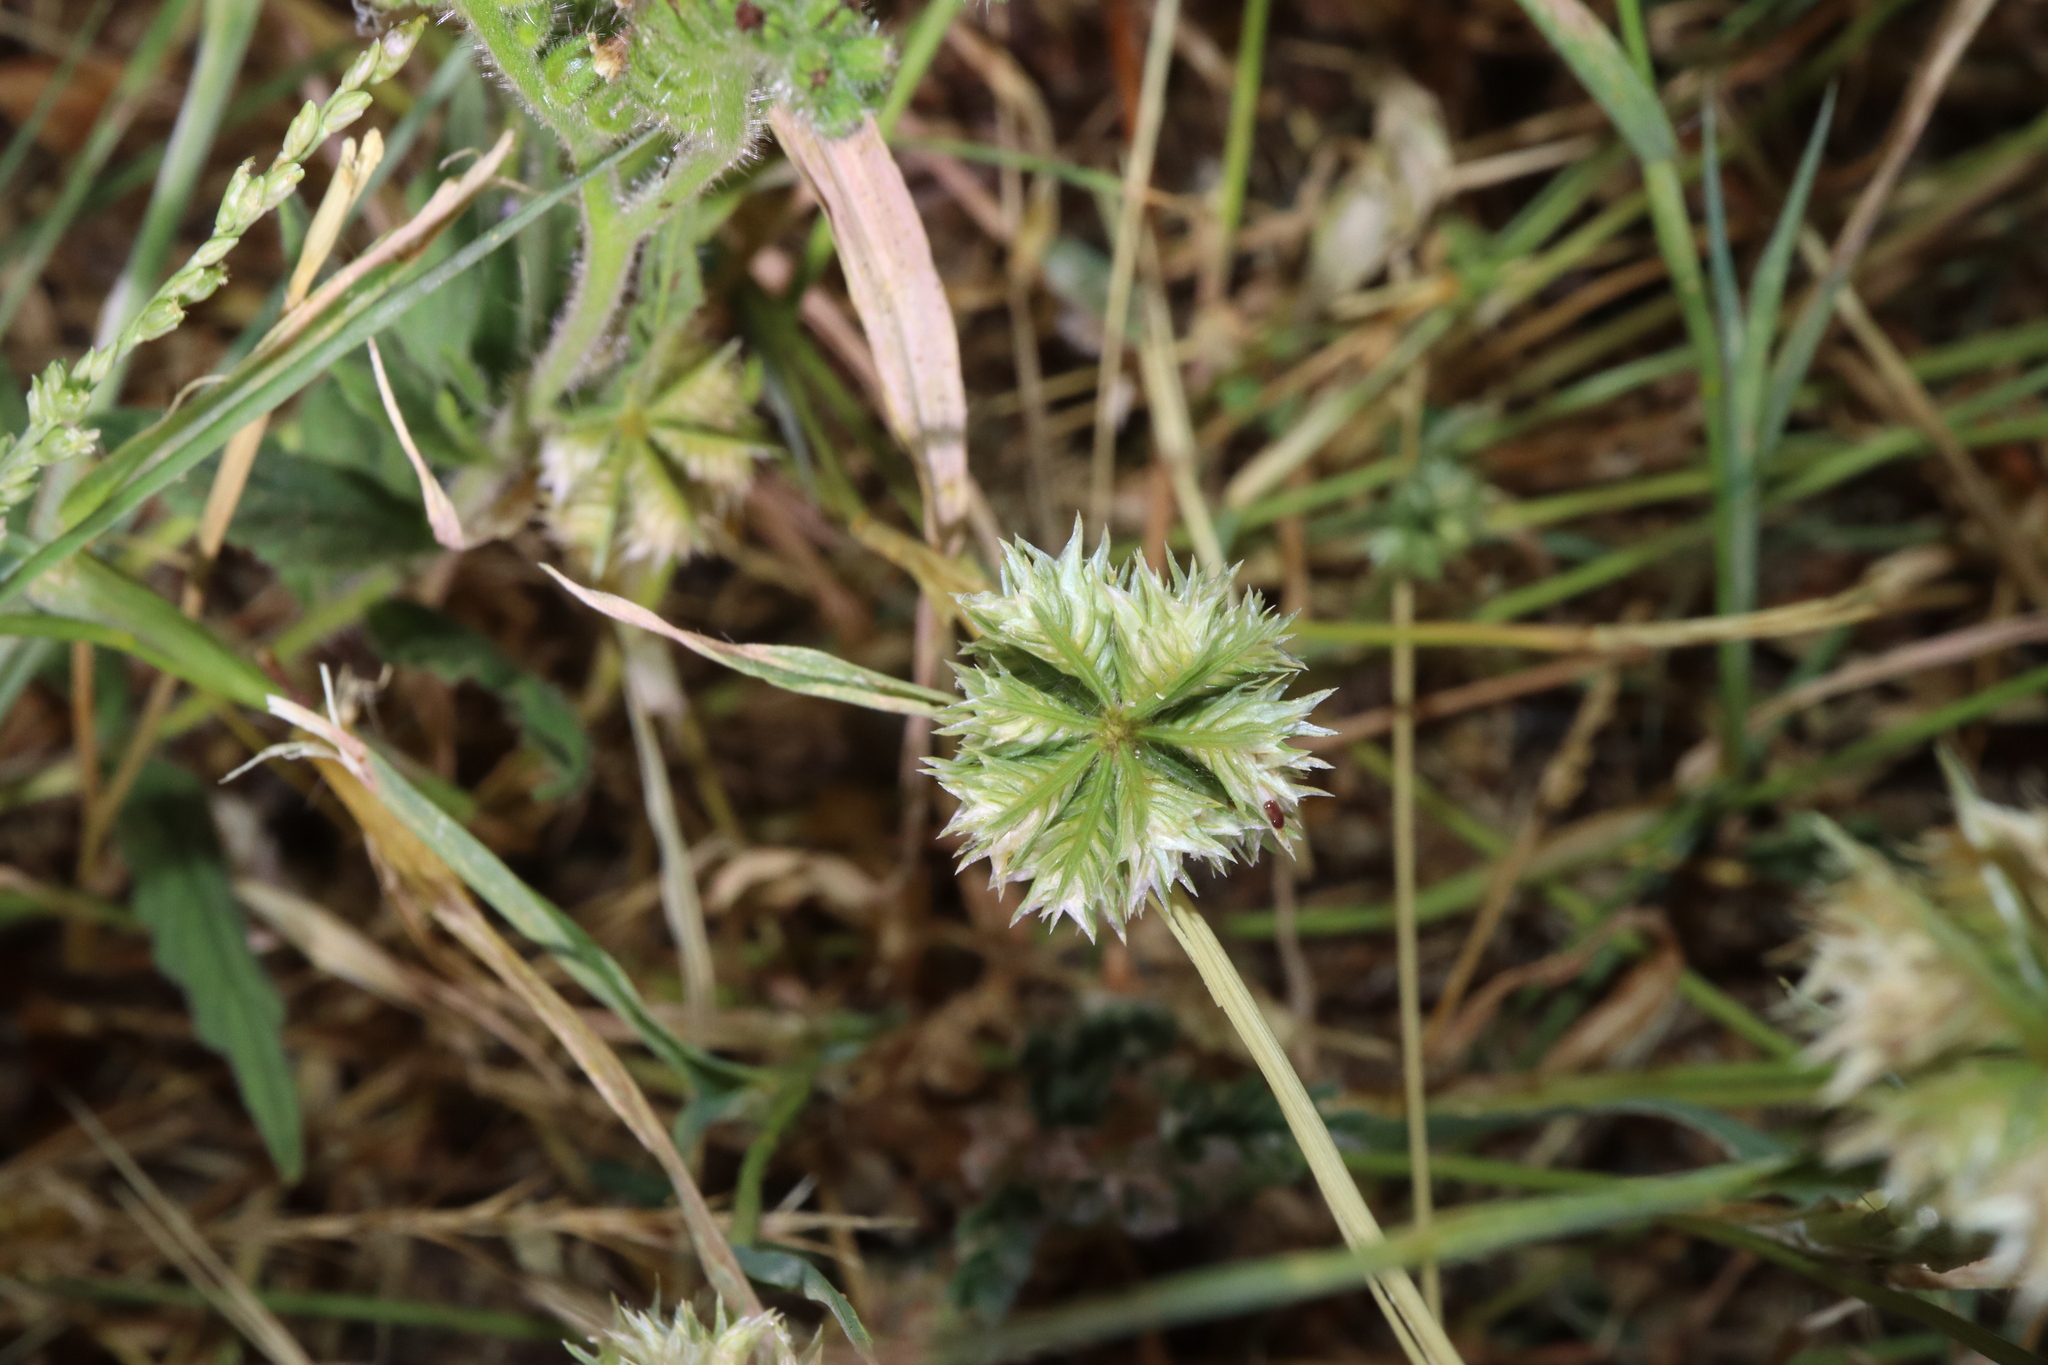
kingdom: Plantae
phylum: Tracheophyta
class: Liliopsida
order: Poales
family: Poaceae
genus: Dactyloctenium
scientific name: Dactyloctenium radulans
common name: Button-grass
